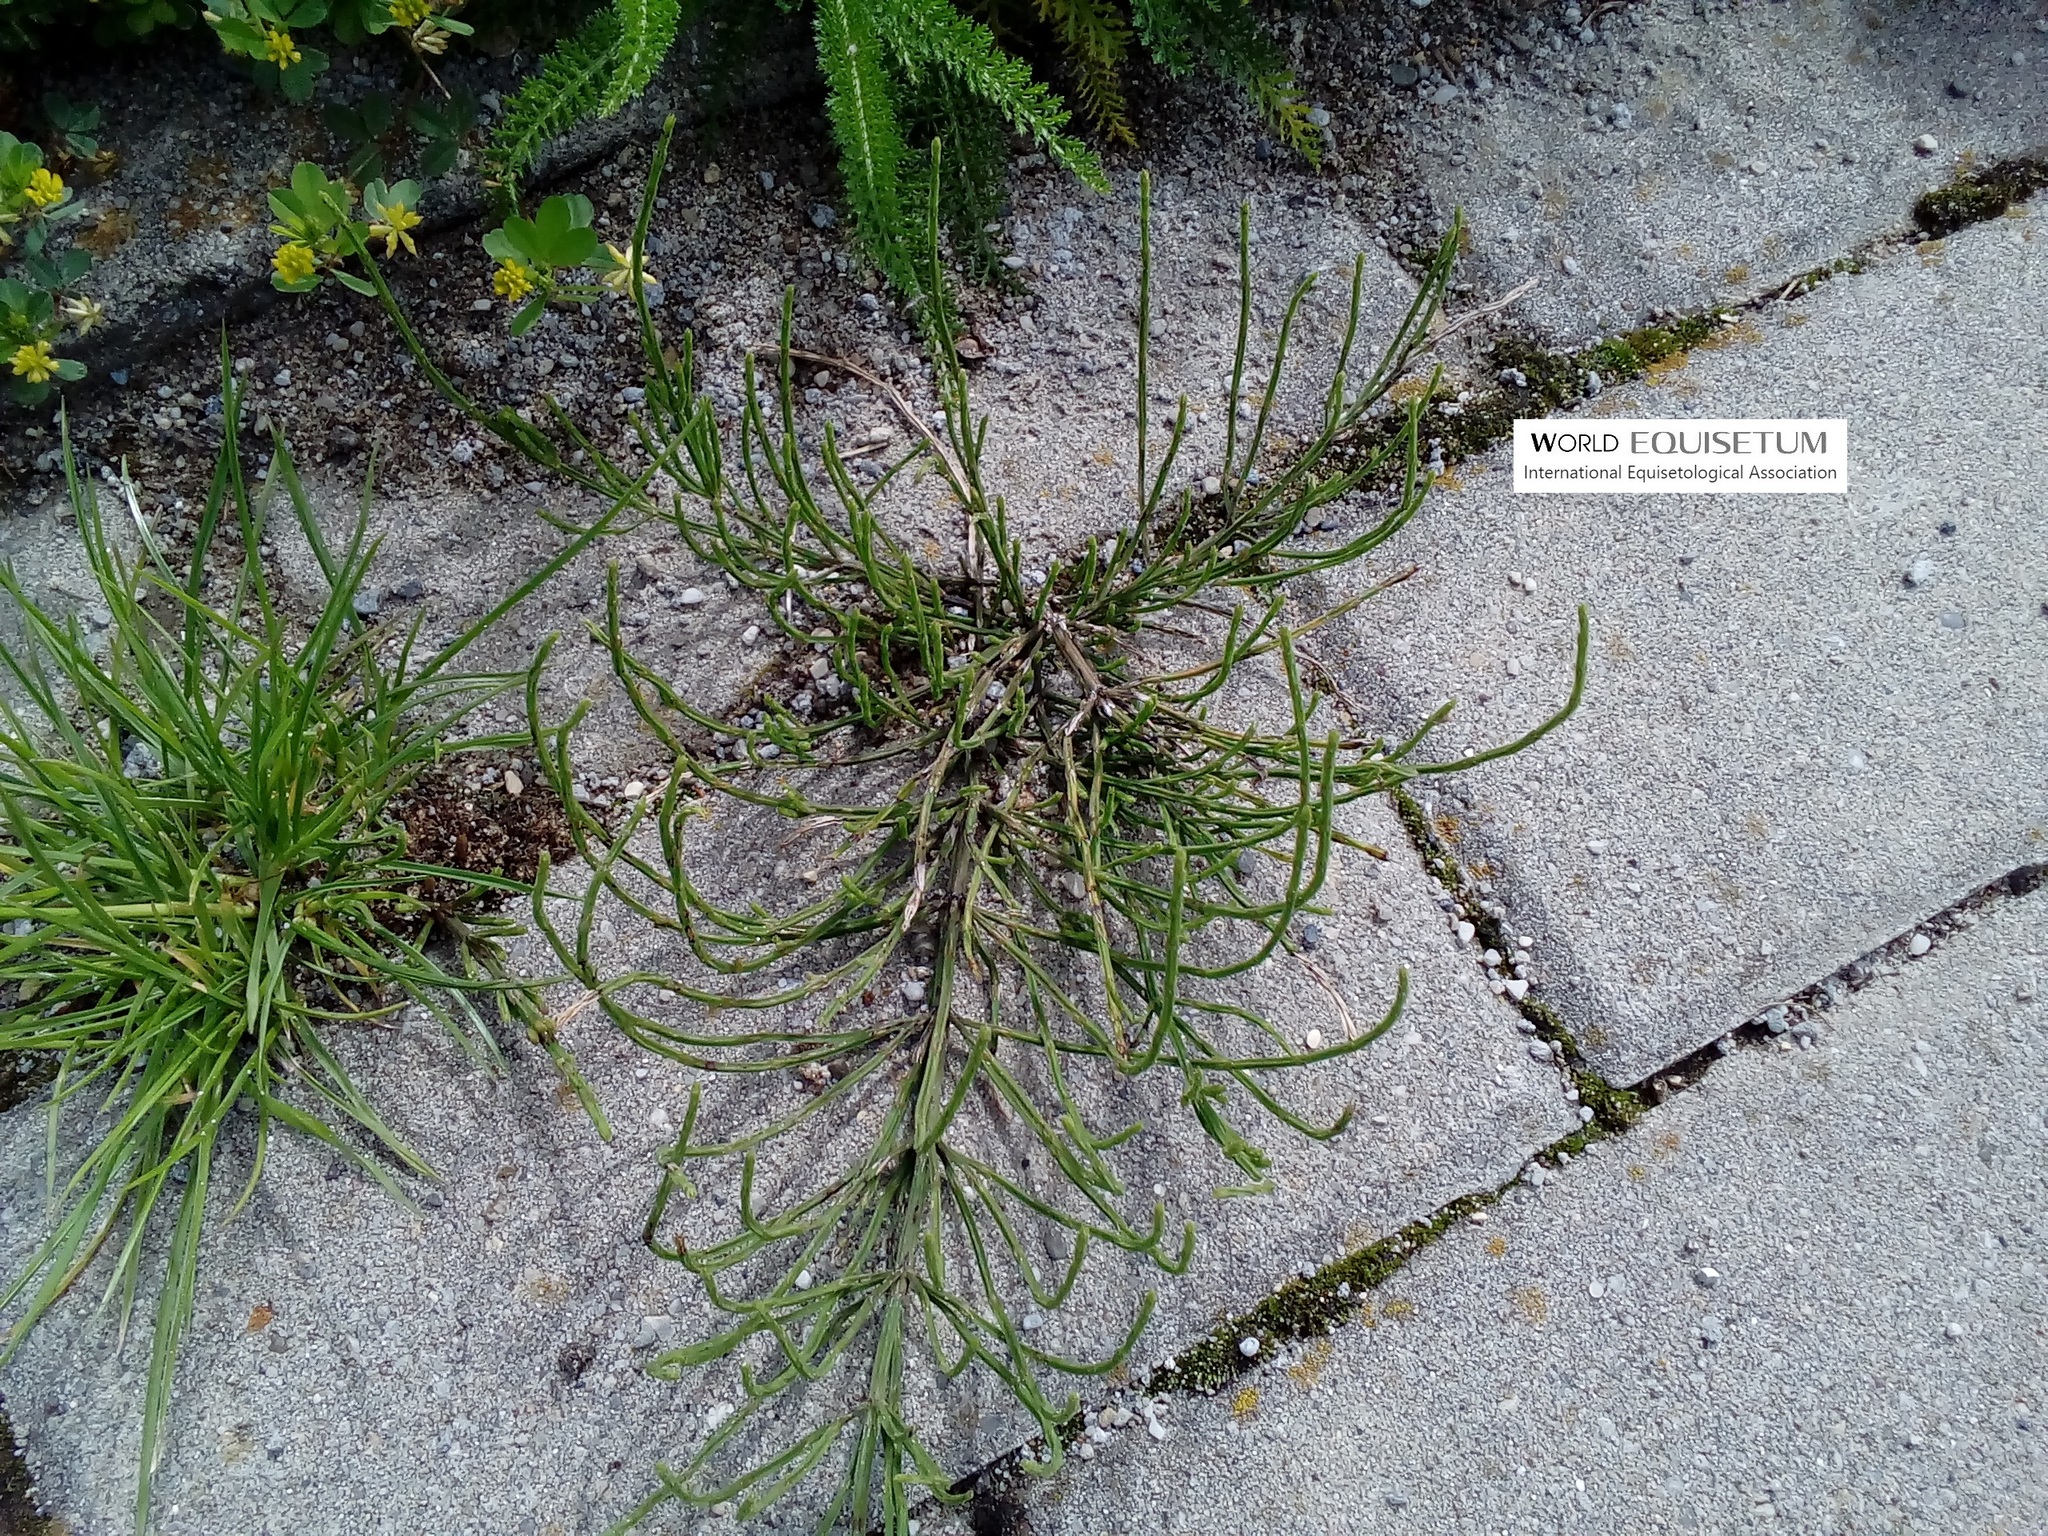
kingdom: Plantae
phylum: Tracheophyta
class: Polypodiopsida
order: Equisetales
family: Equisetaceae
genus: Equisetum
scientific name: Equisetum arvense
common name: Field horsetail
